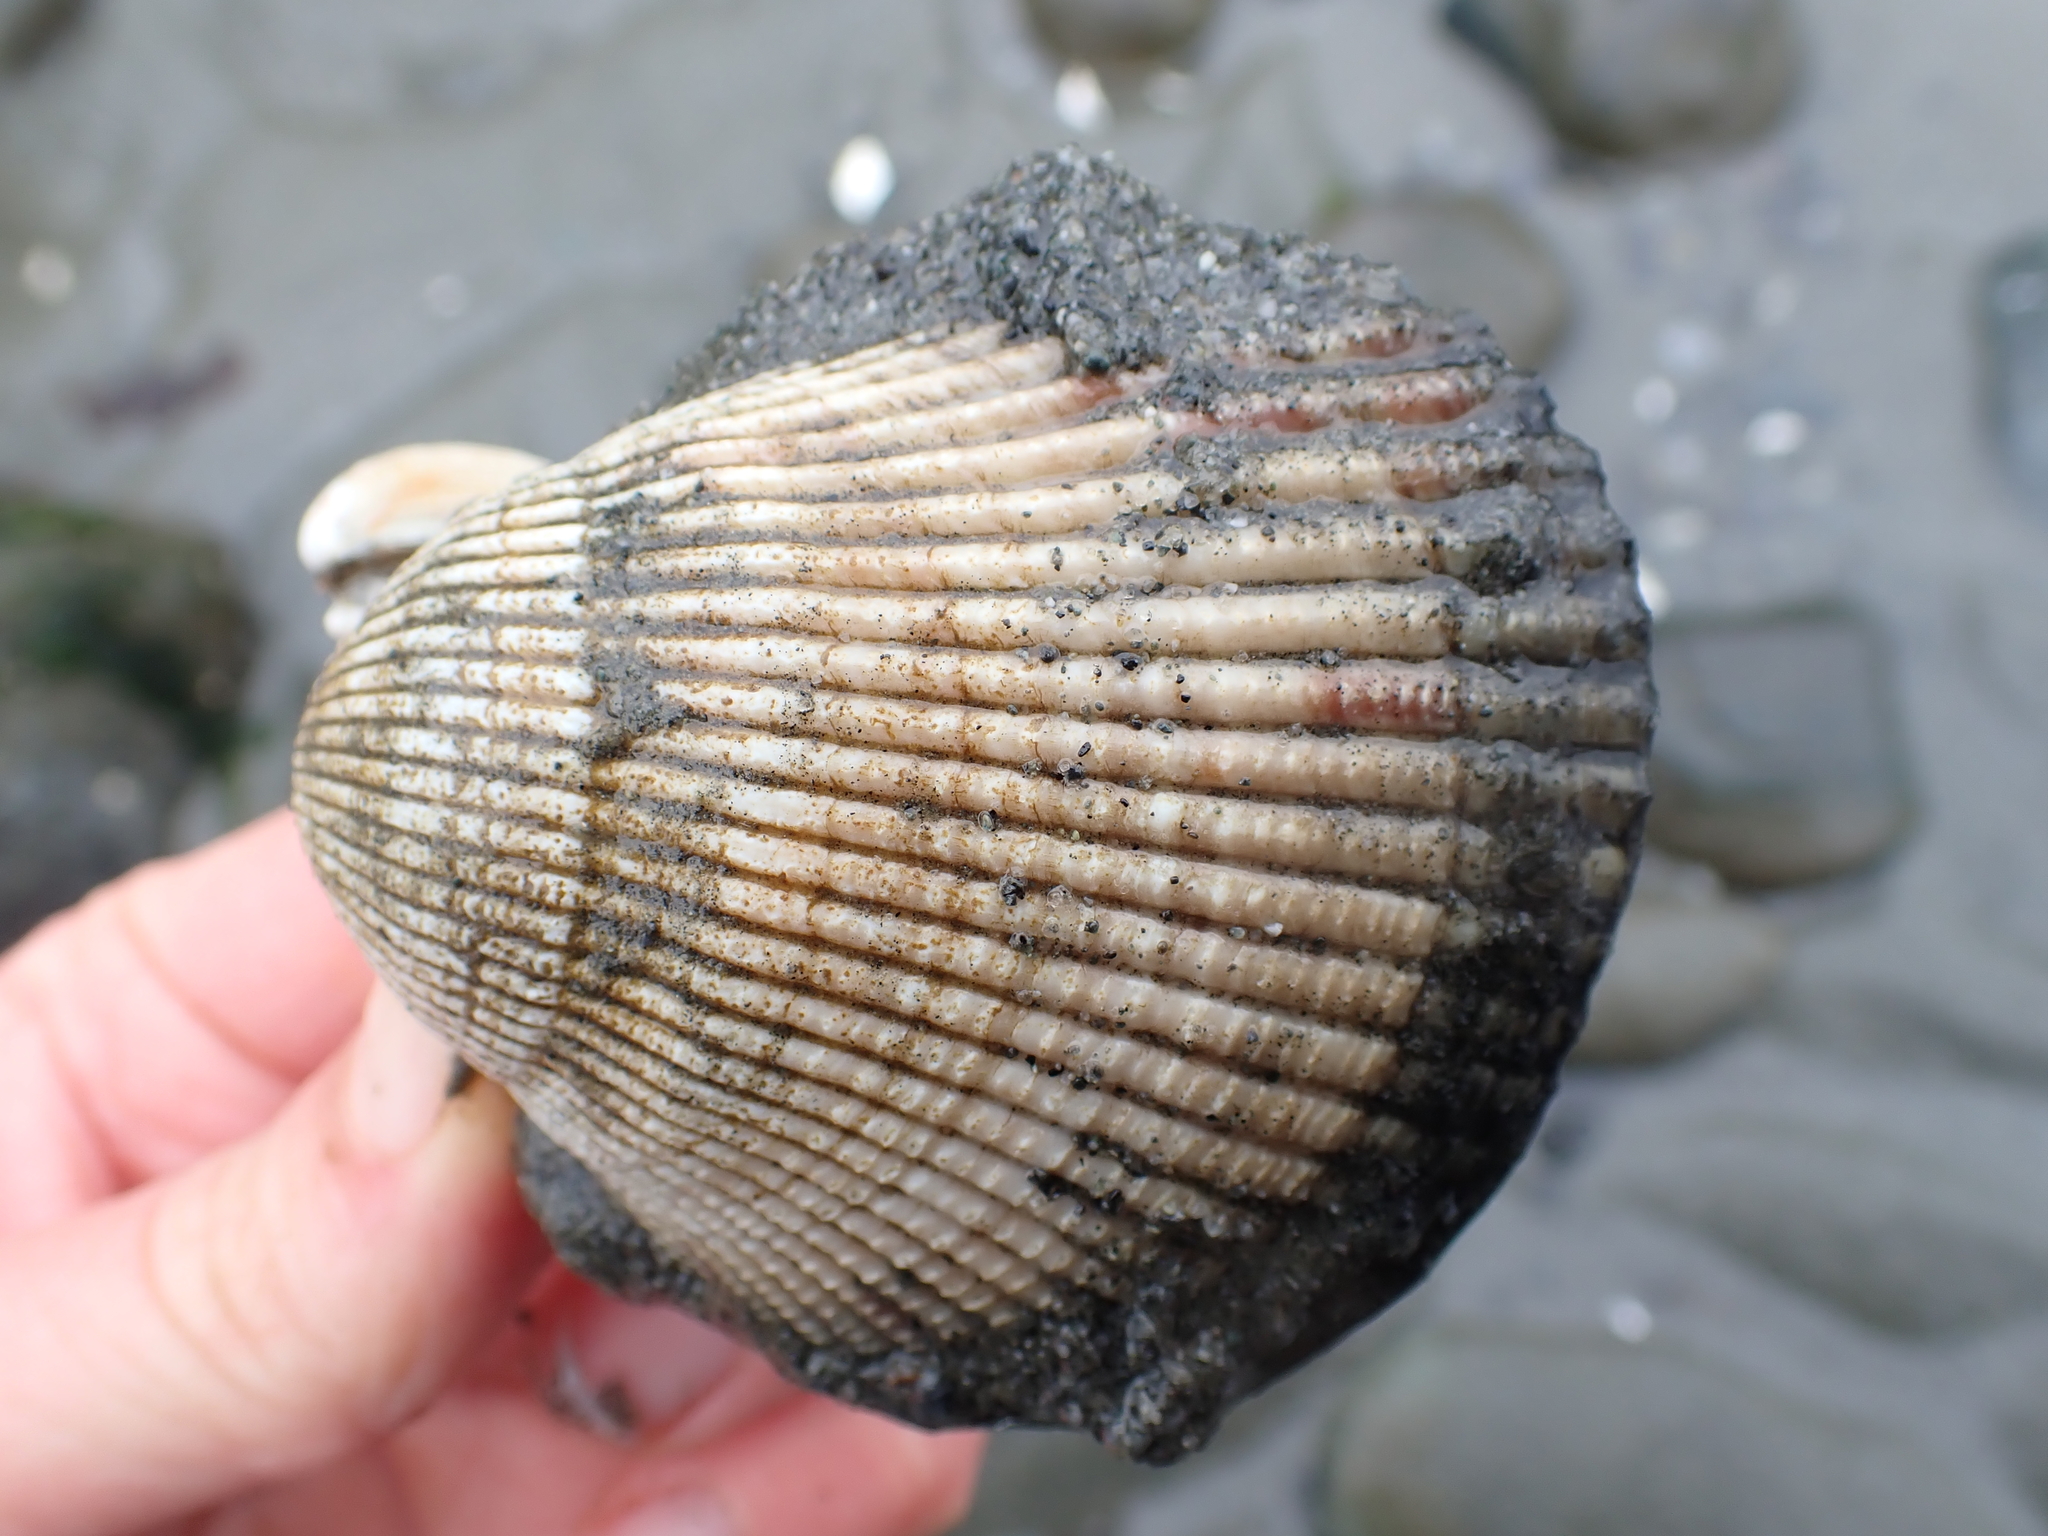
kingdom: Animalia
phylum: Mollusca
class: Bivalvia
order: Cardiida
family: Cardiidae
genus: Clinocardium
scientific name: Clinocardium nuttallii
